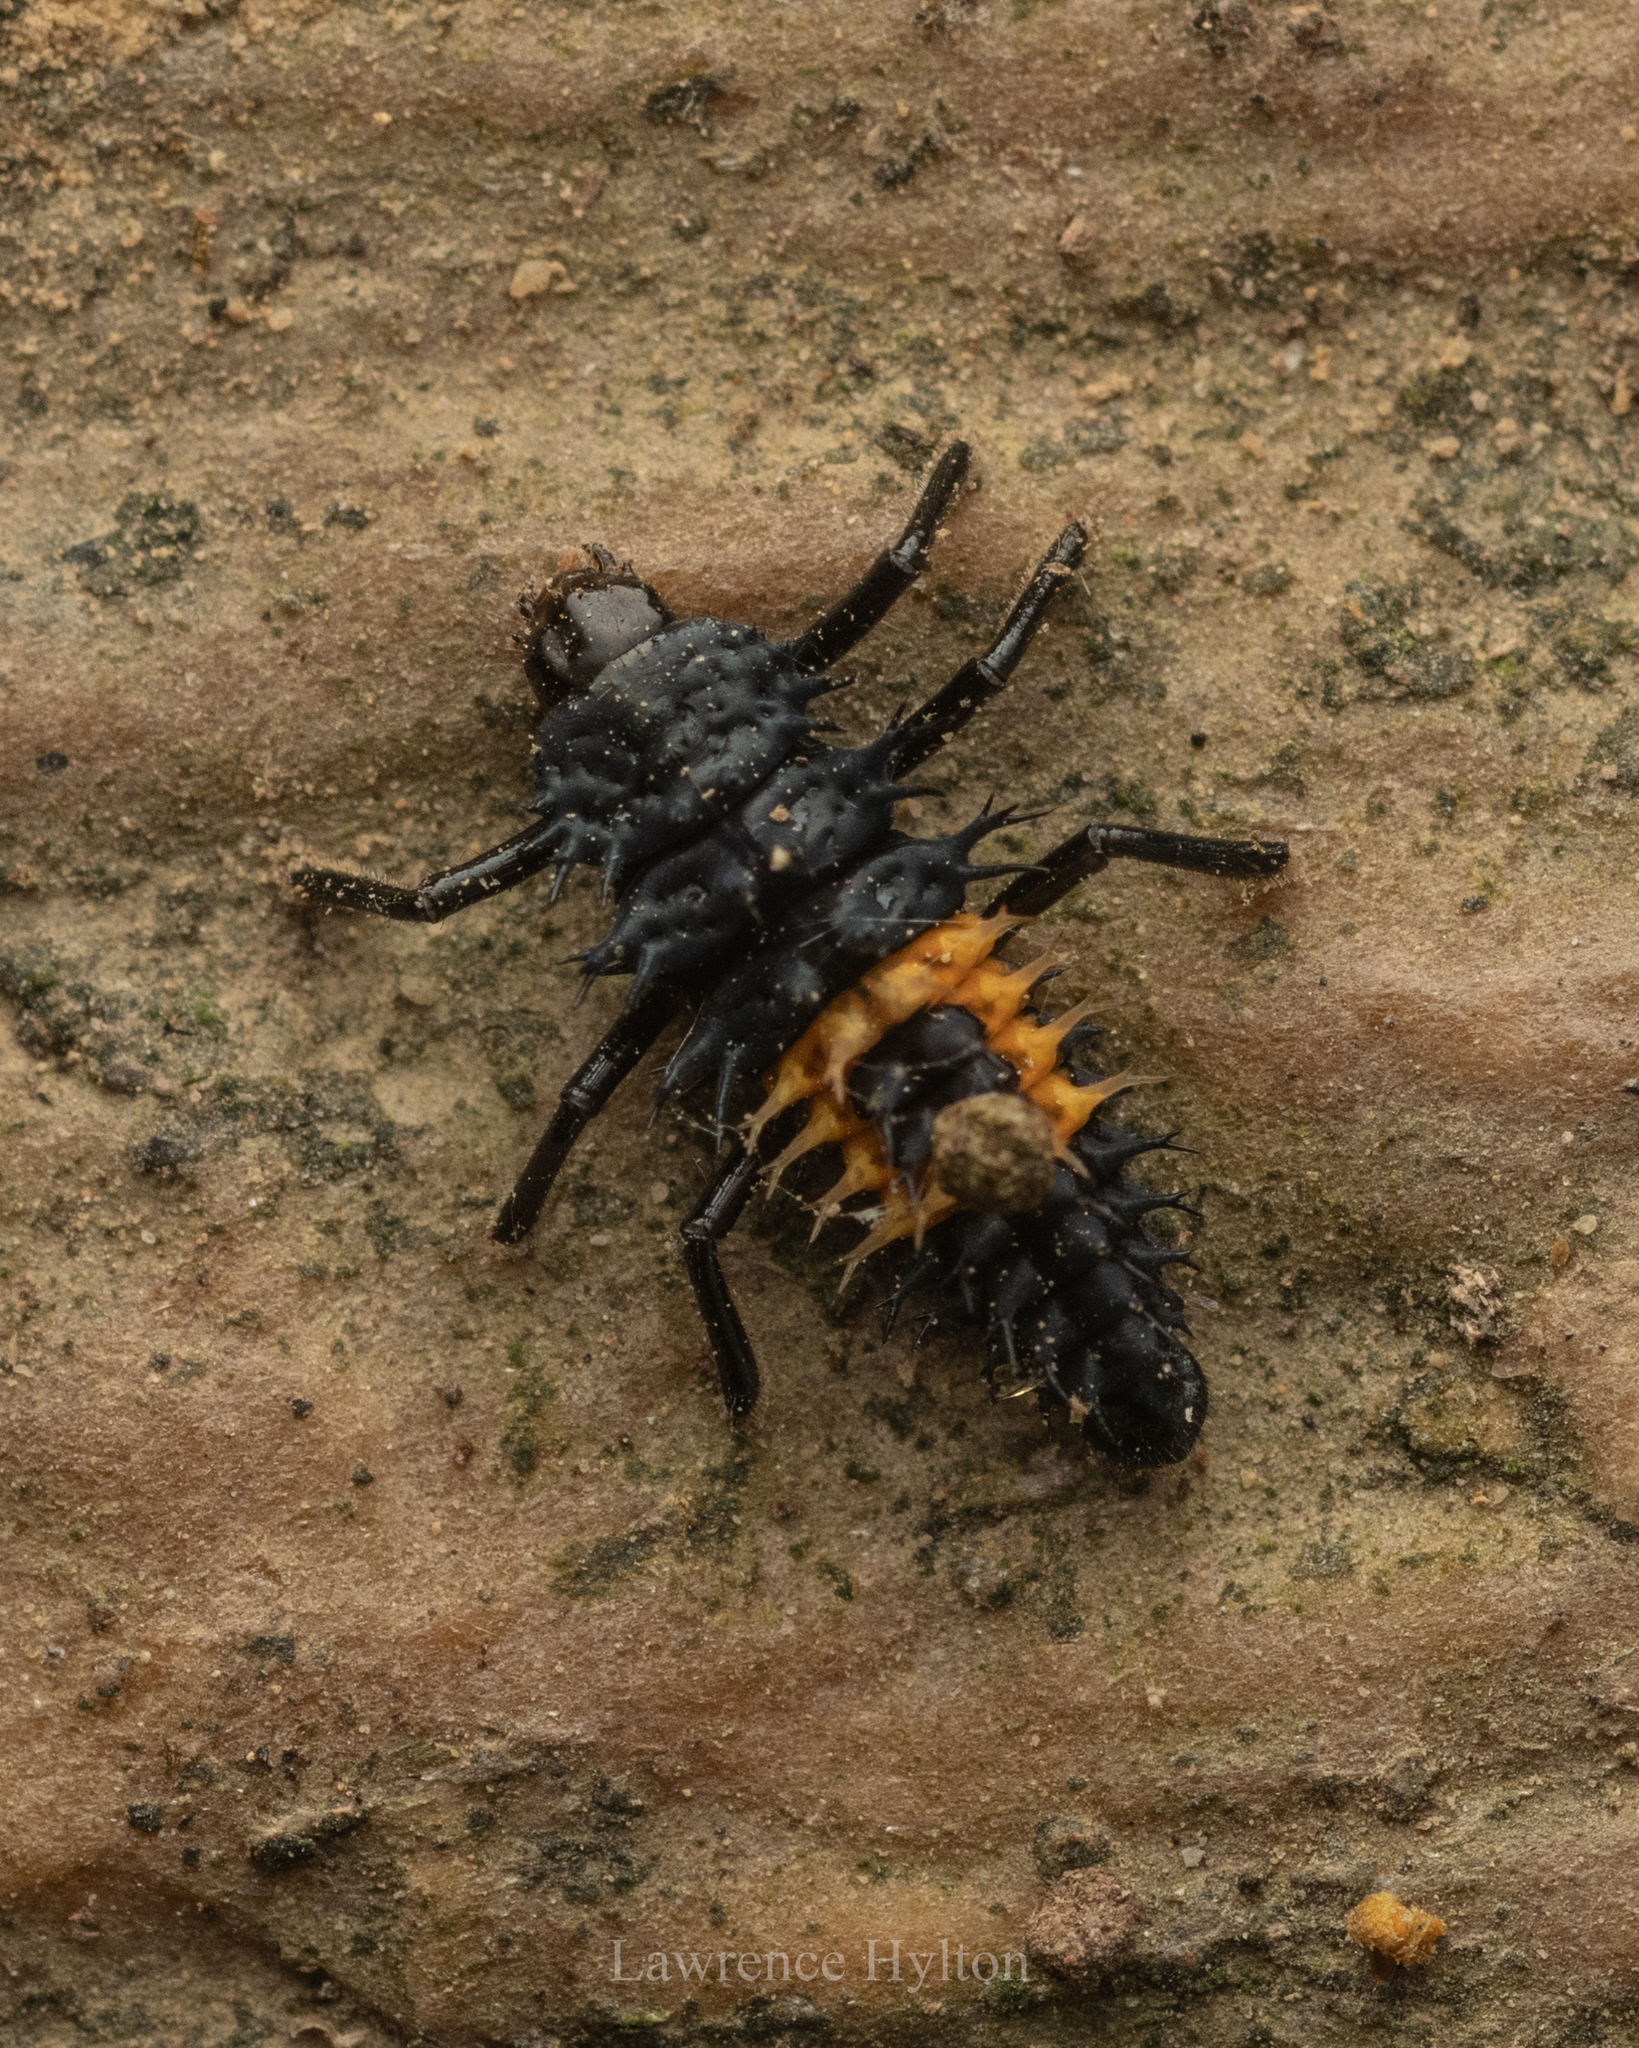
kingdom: Animalia
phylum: Arthropoda
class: Insecta
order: Coleoptera
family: Coccinellidae
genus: Harmonia
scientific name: Harmonia dimidiata
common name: Ladybird beetle
